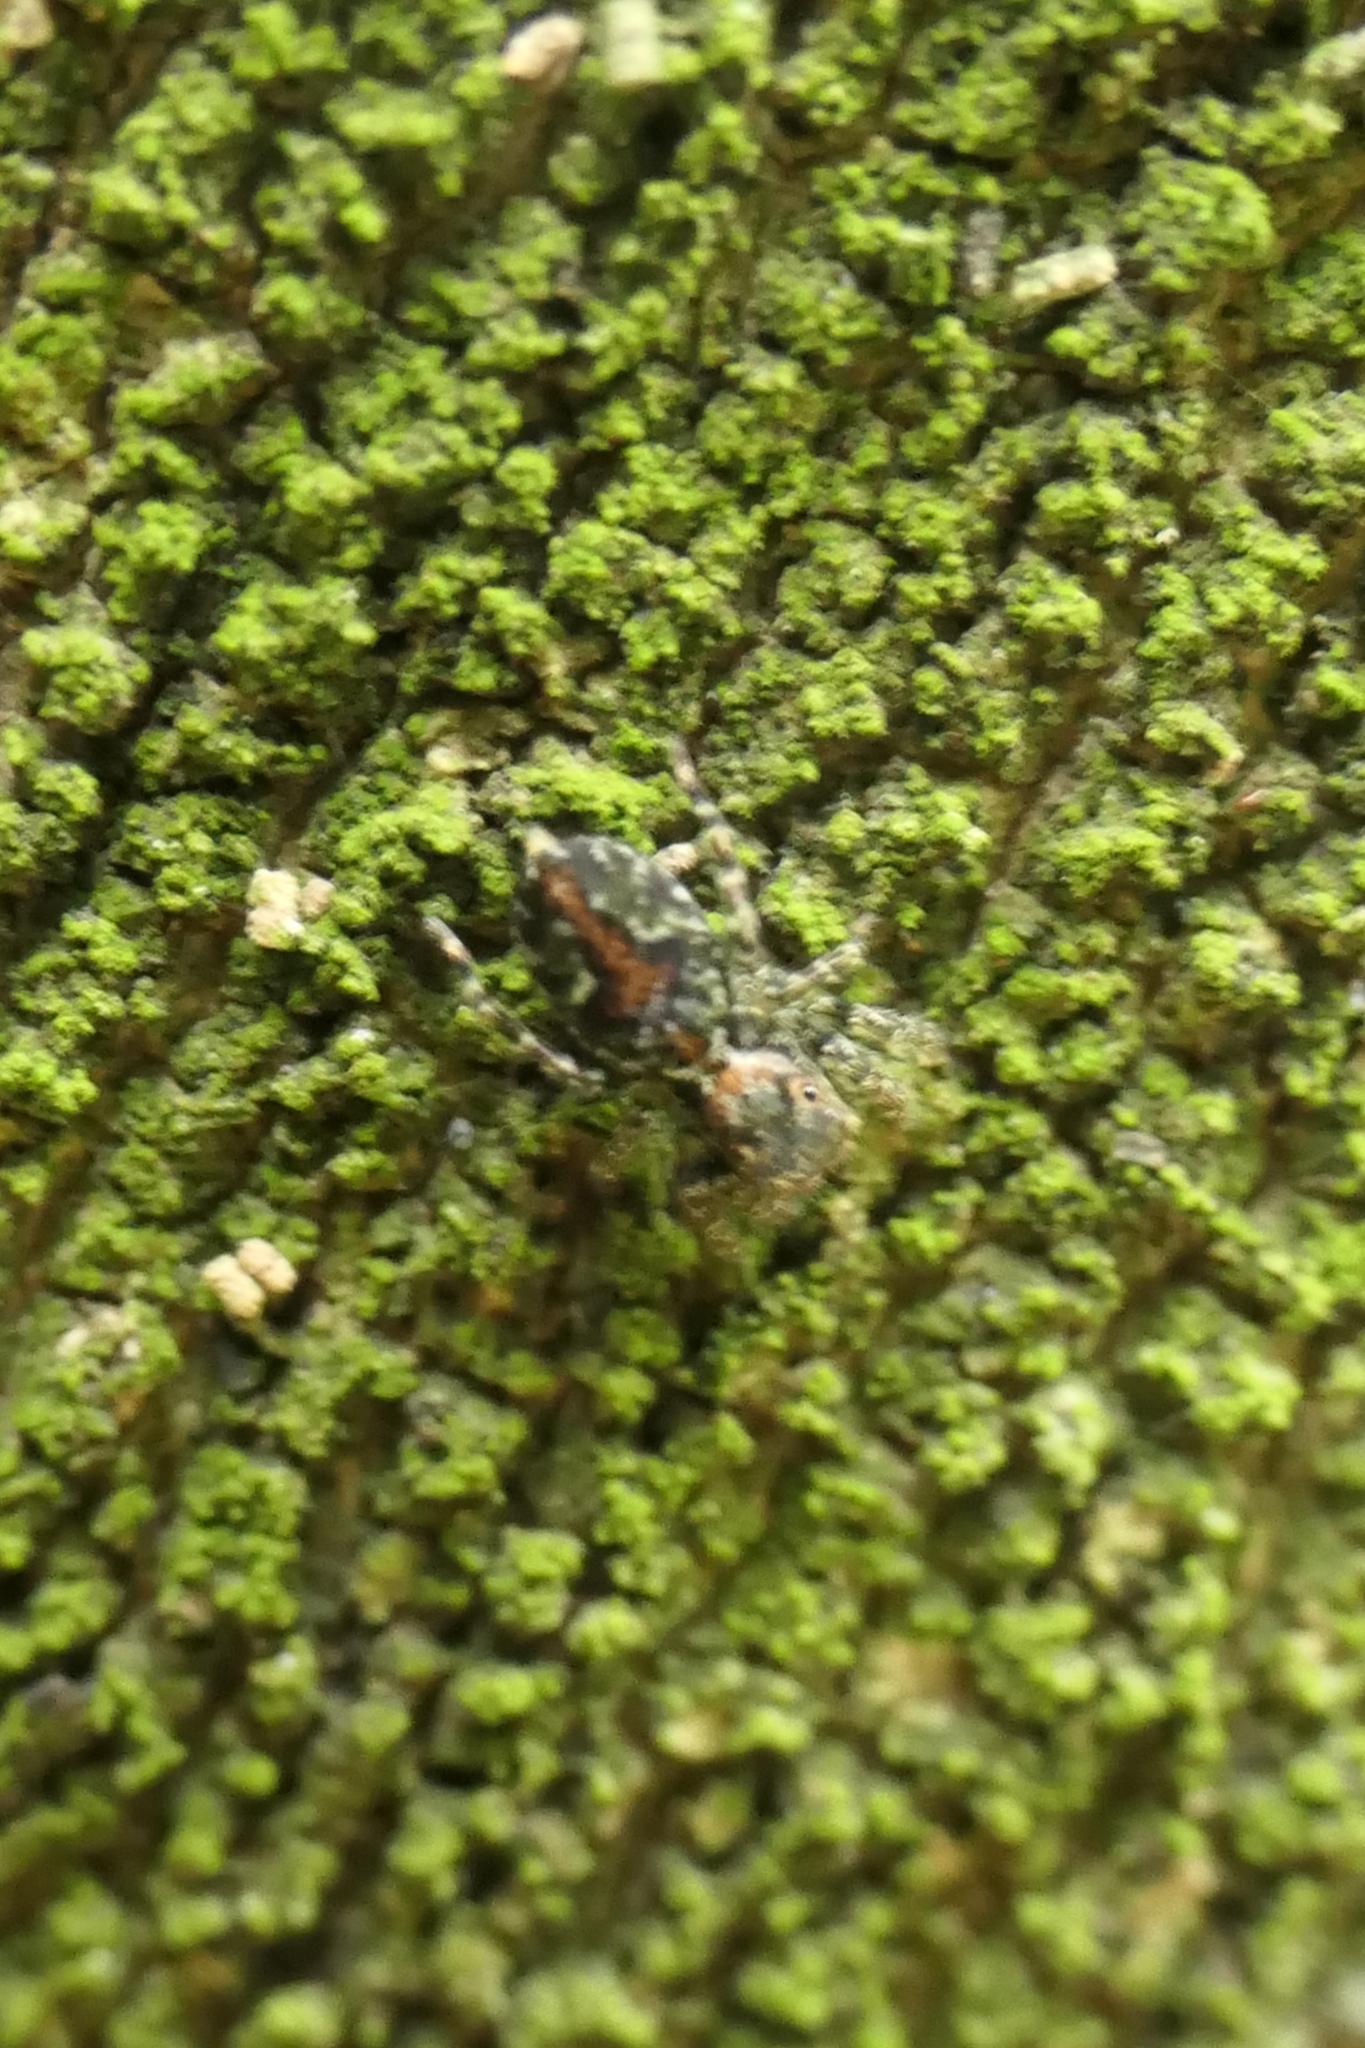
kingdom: Animalia
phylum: Arthropoda
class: Arachnida
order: Araneae
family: Salticidae
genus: Hinewaia
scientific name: Hinewaia embolica
